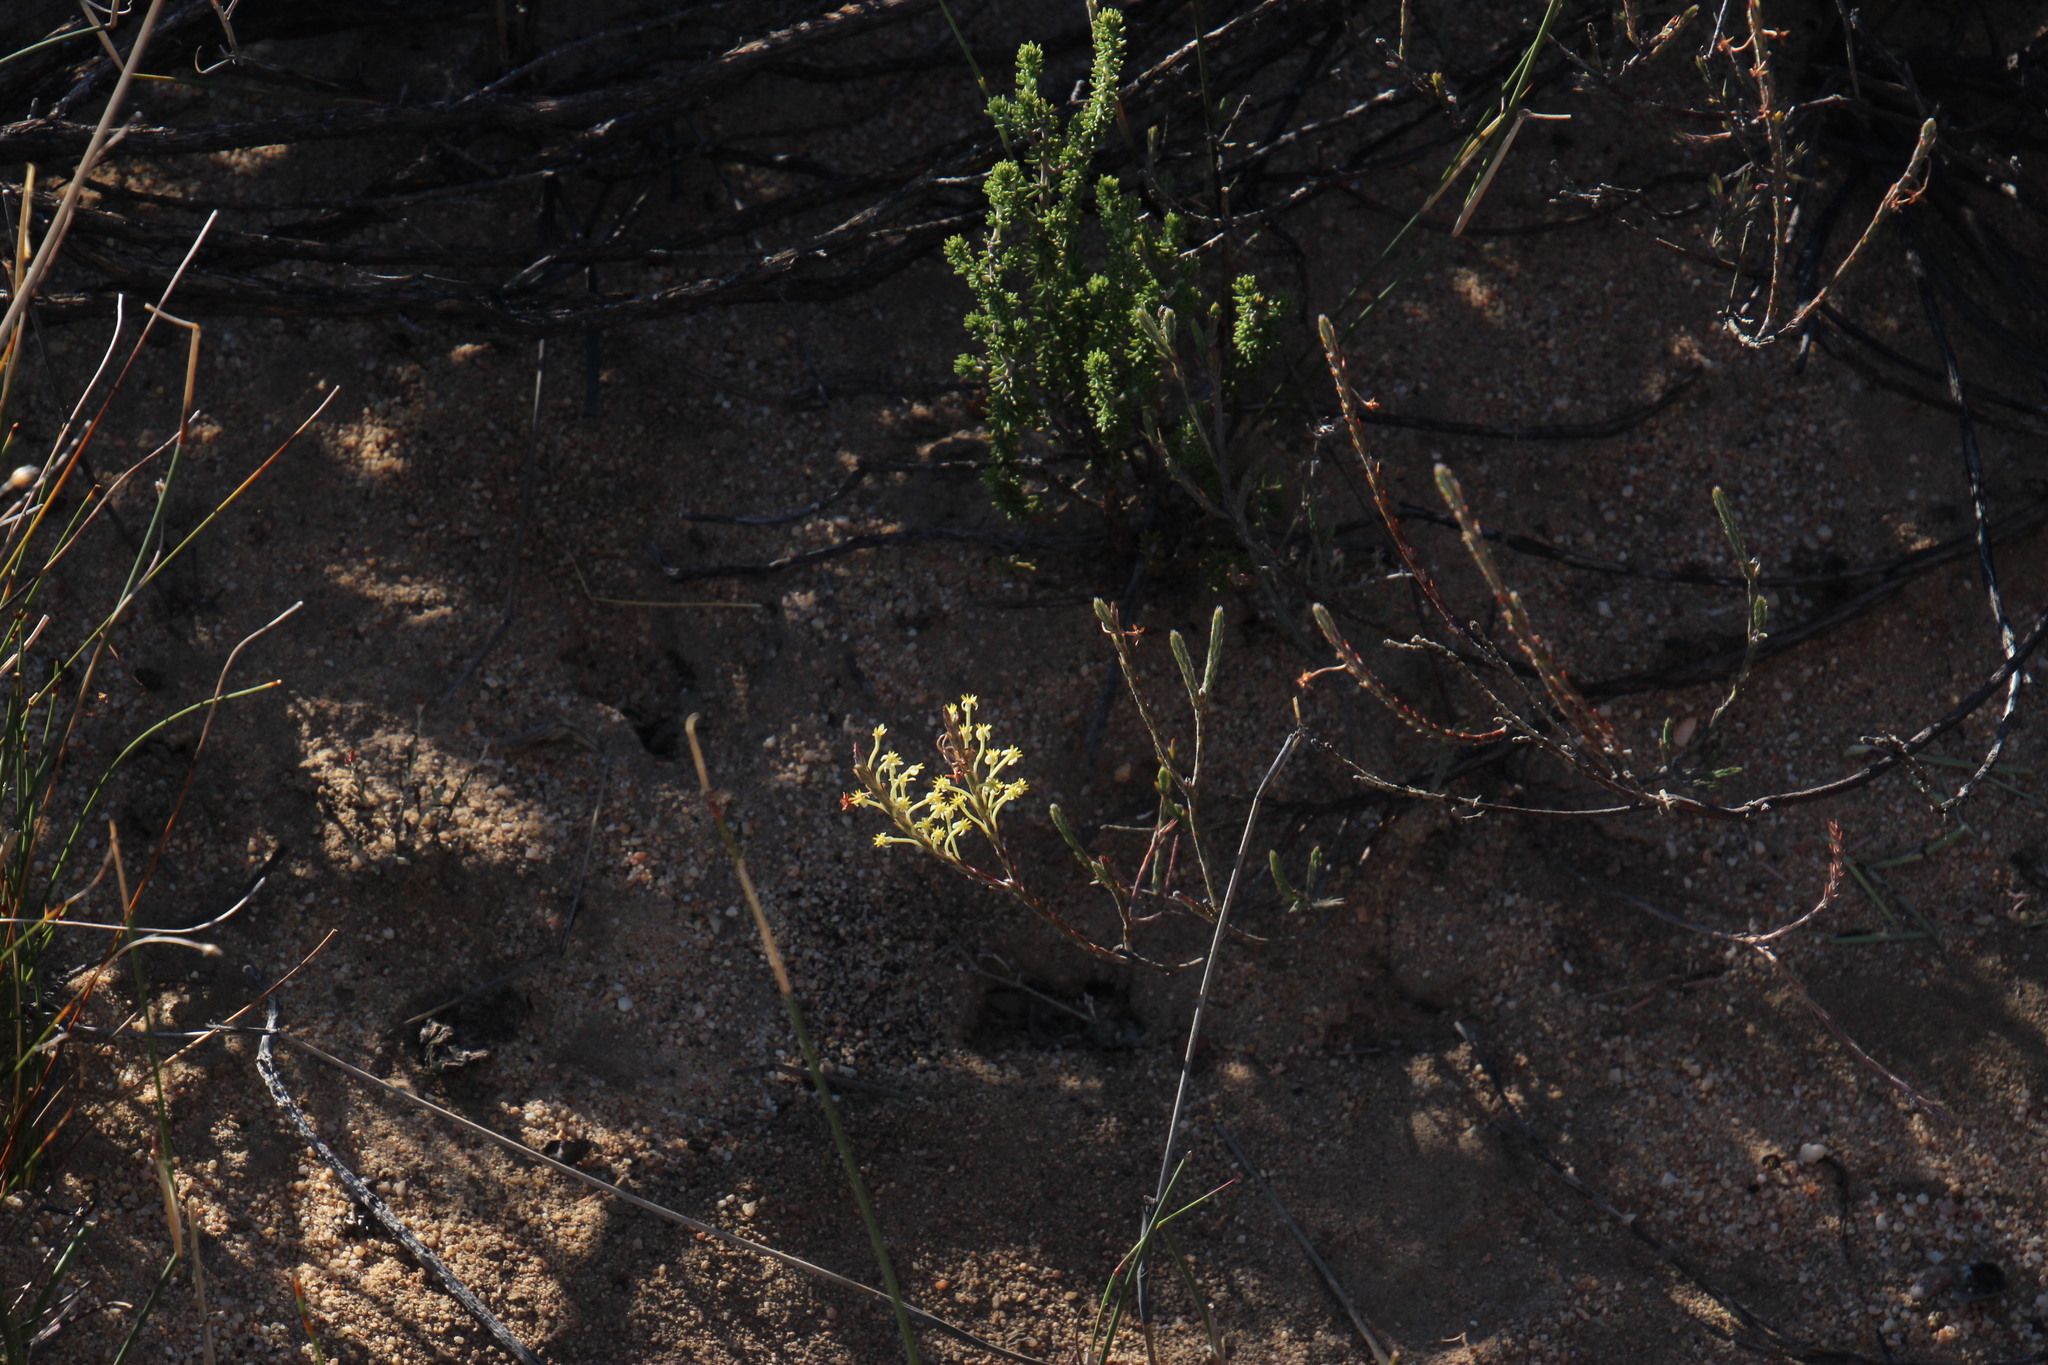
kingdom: Plantae
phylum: Tracheophyta
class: Magnoliopsida
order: Malvales
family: Thymelaeaceae
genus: Struthiola
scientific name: Struthiola ciliata
